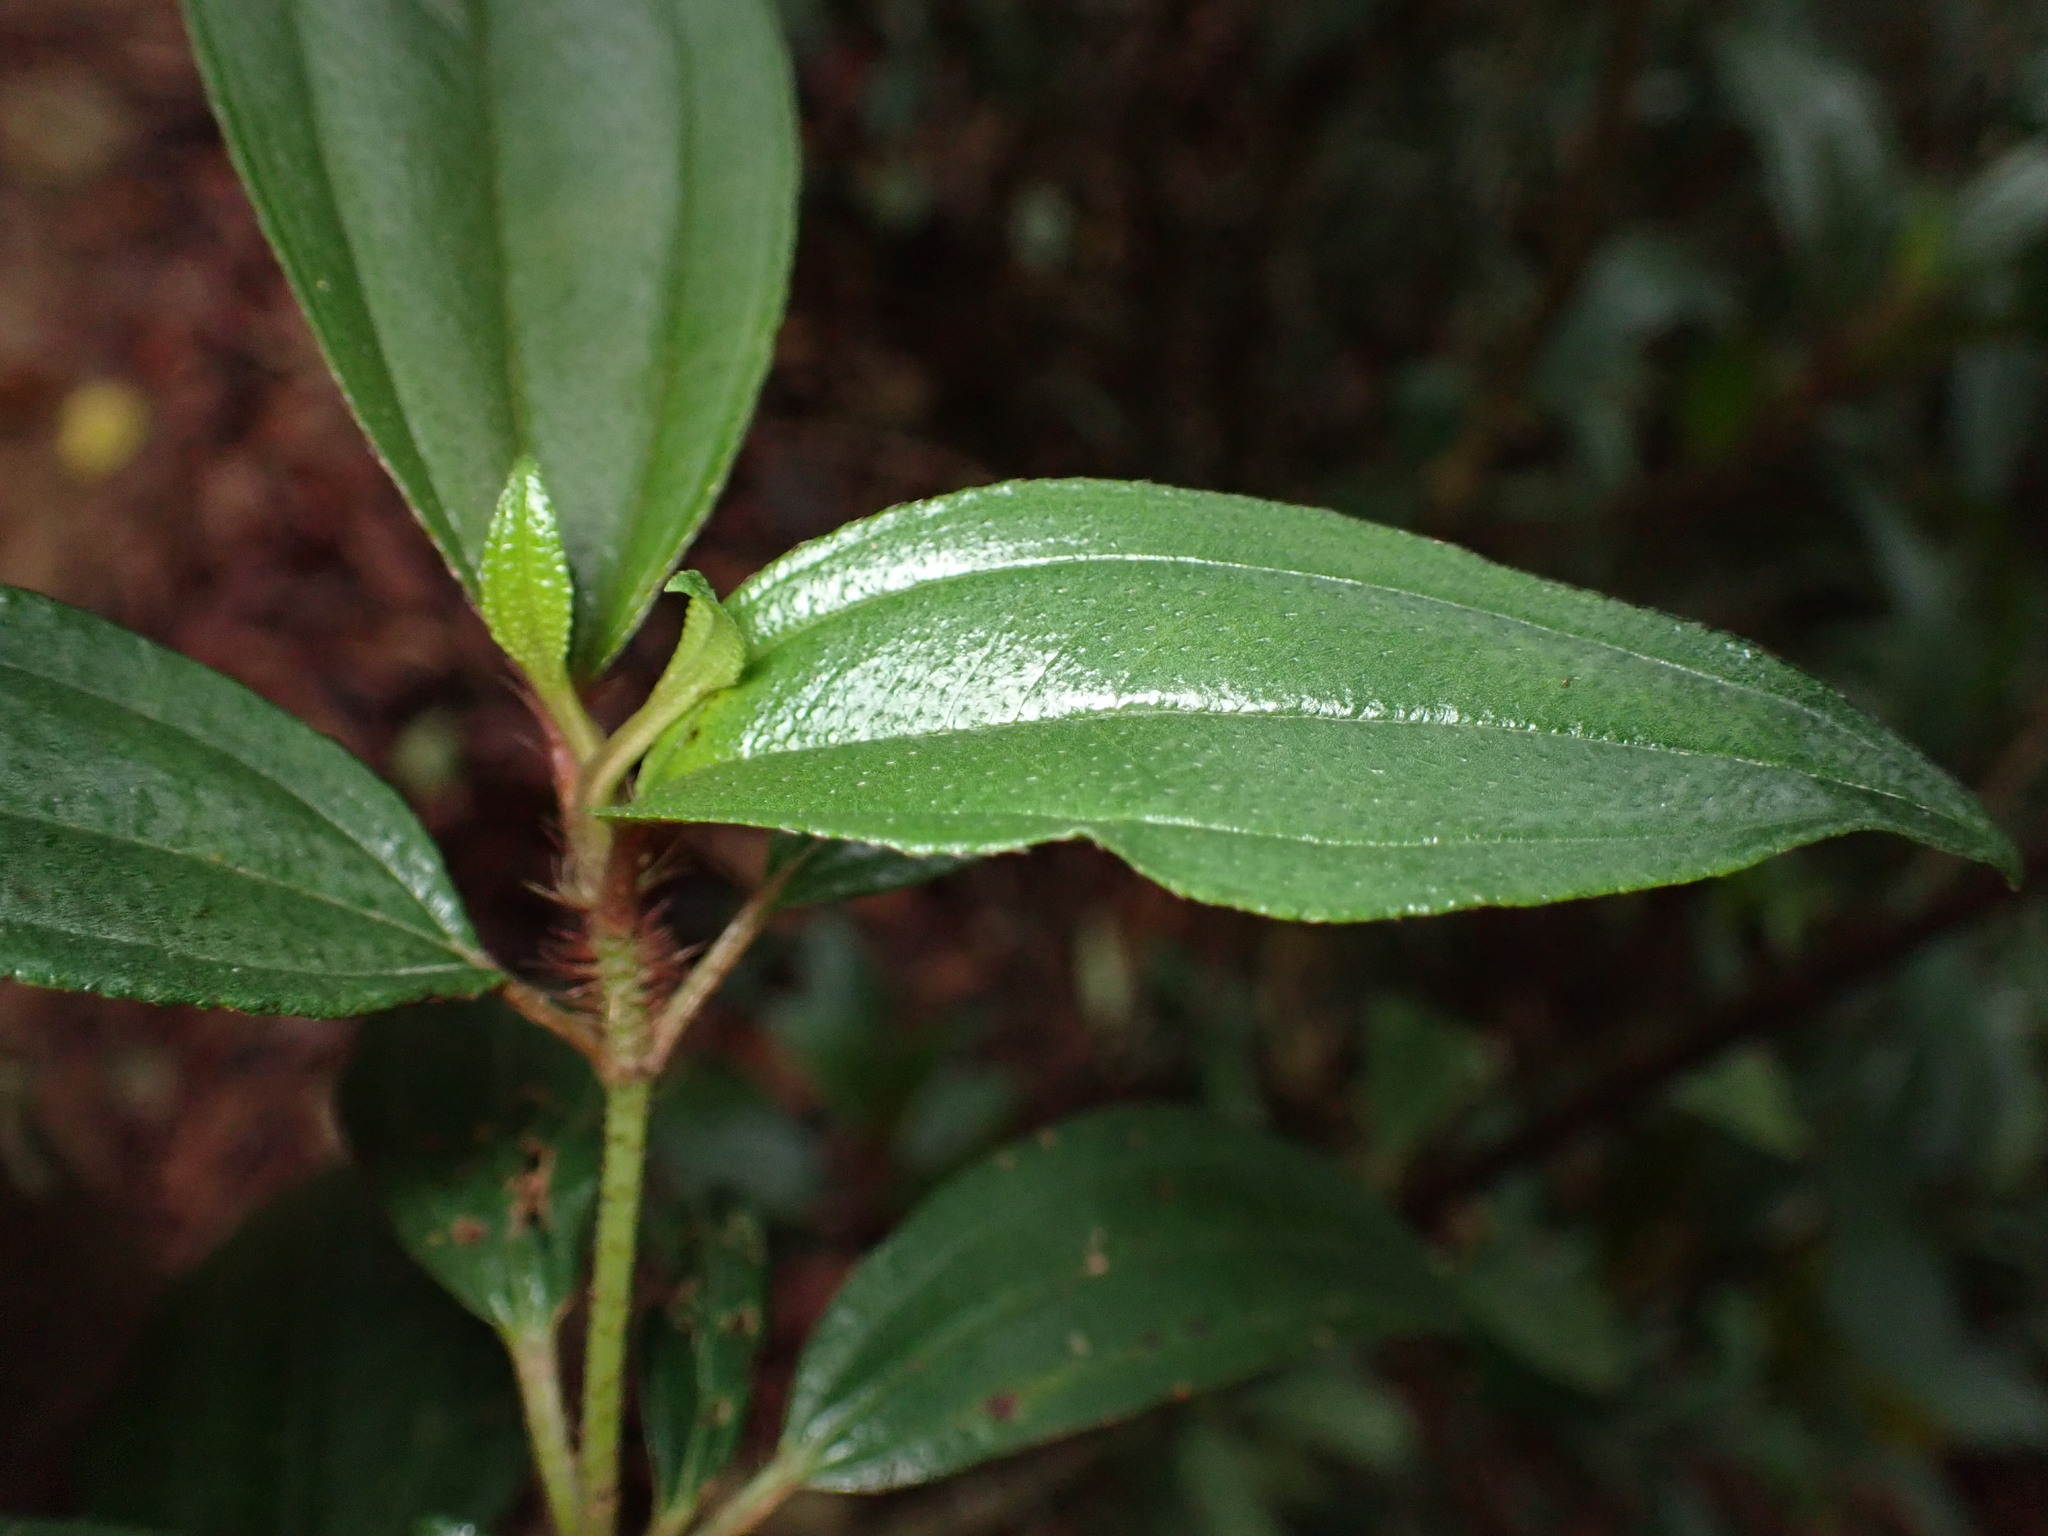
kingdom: Plantae
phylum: Tracheophyta
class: Magnoliopsida
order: Myrtales
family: Melastomataceae
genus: Melastoma
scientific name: Melastoma sanguineum
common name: Red melastome
